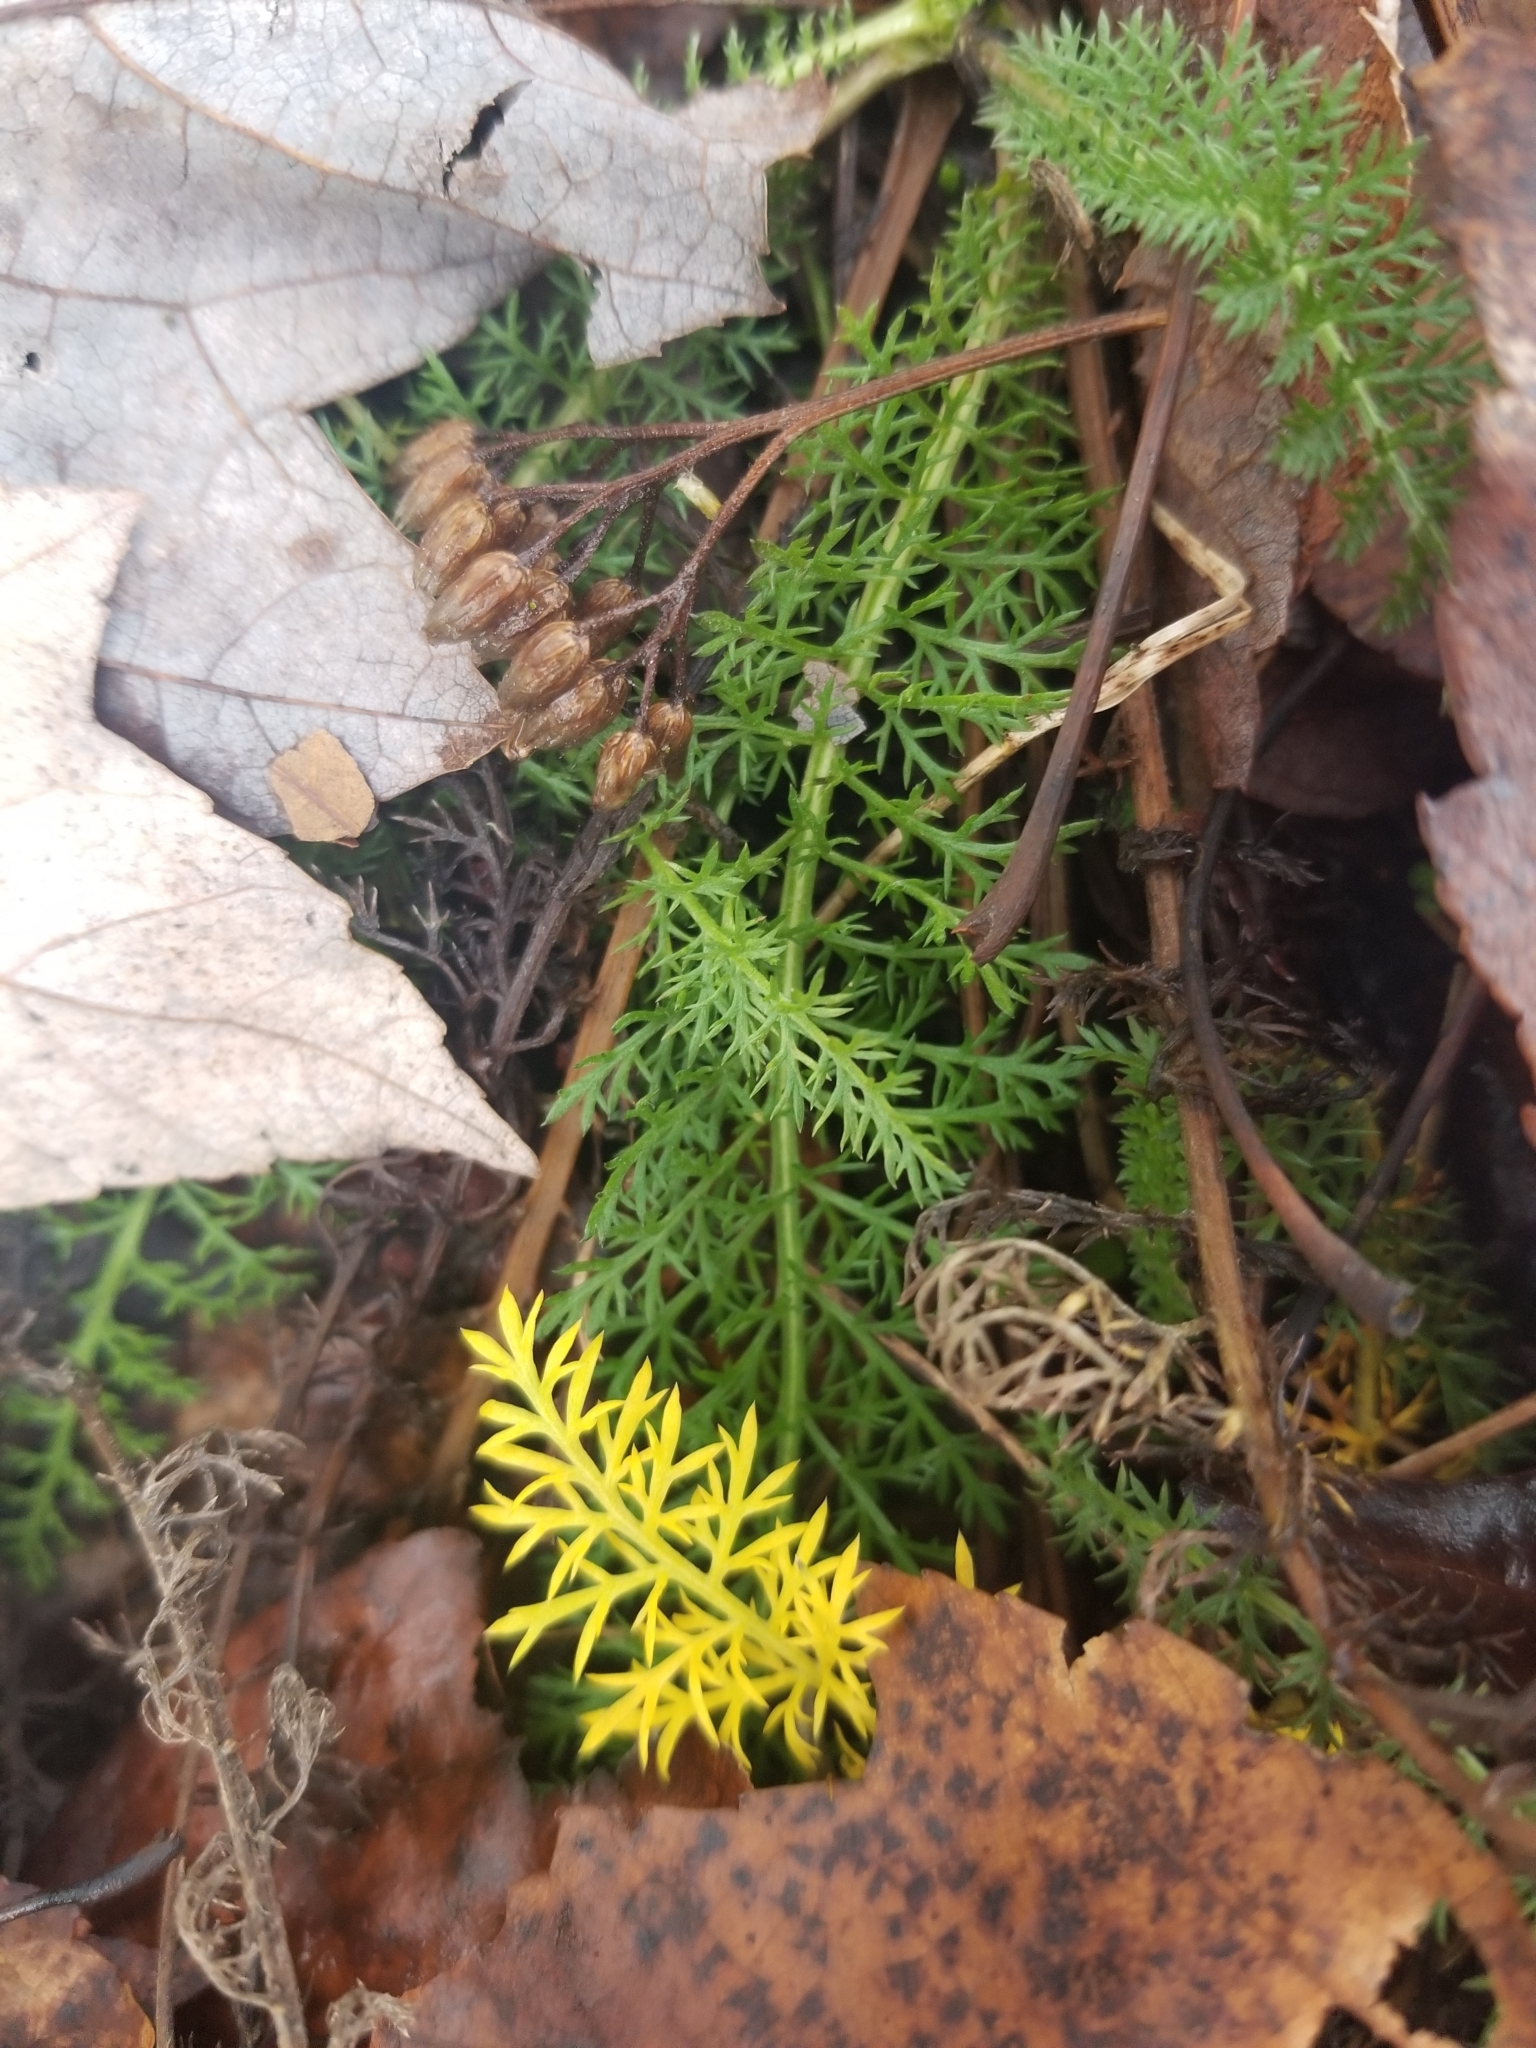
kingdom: Plantae
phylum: Tracheophyta
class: Magnoliopsida
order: Asterales
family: Asteraceae
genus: Achillea
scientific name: Achillea millefolium
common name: Yarrow
